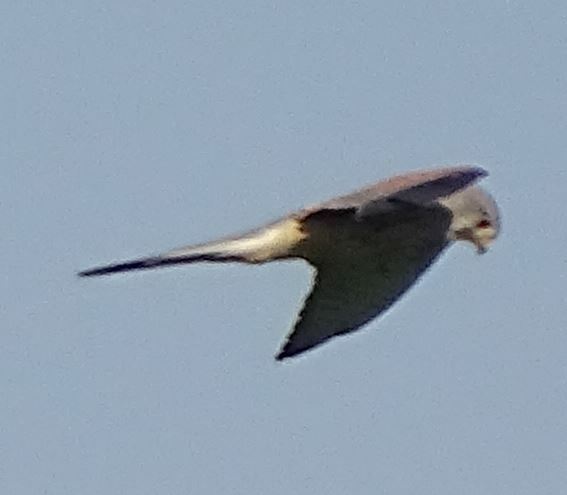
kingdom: Animalia
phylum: Chordata
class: Aves
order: Falconiformes
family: Falconidae
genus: Falco
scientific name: Falco tinnunculus
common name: Common kestrel
